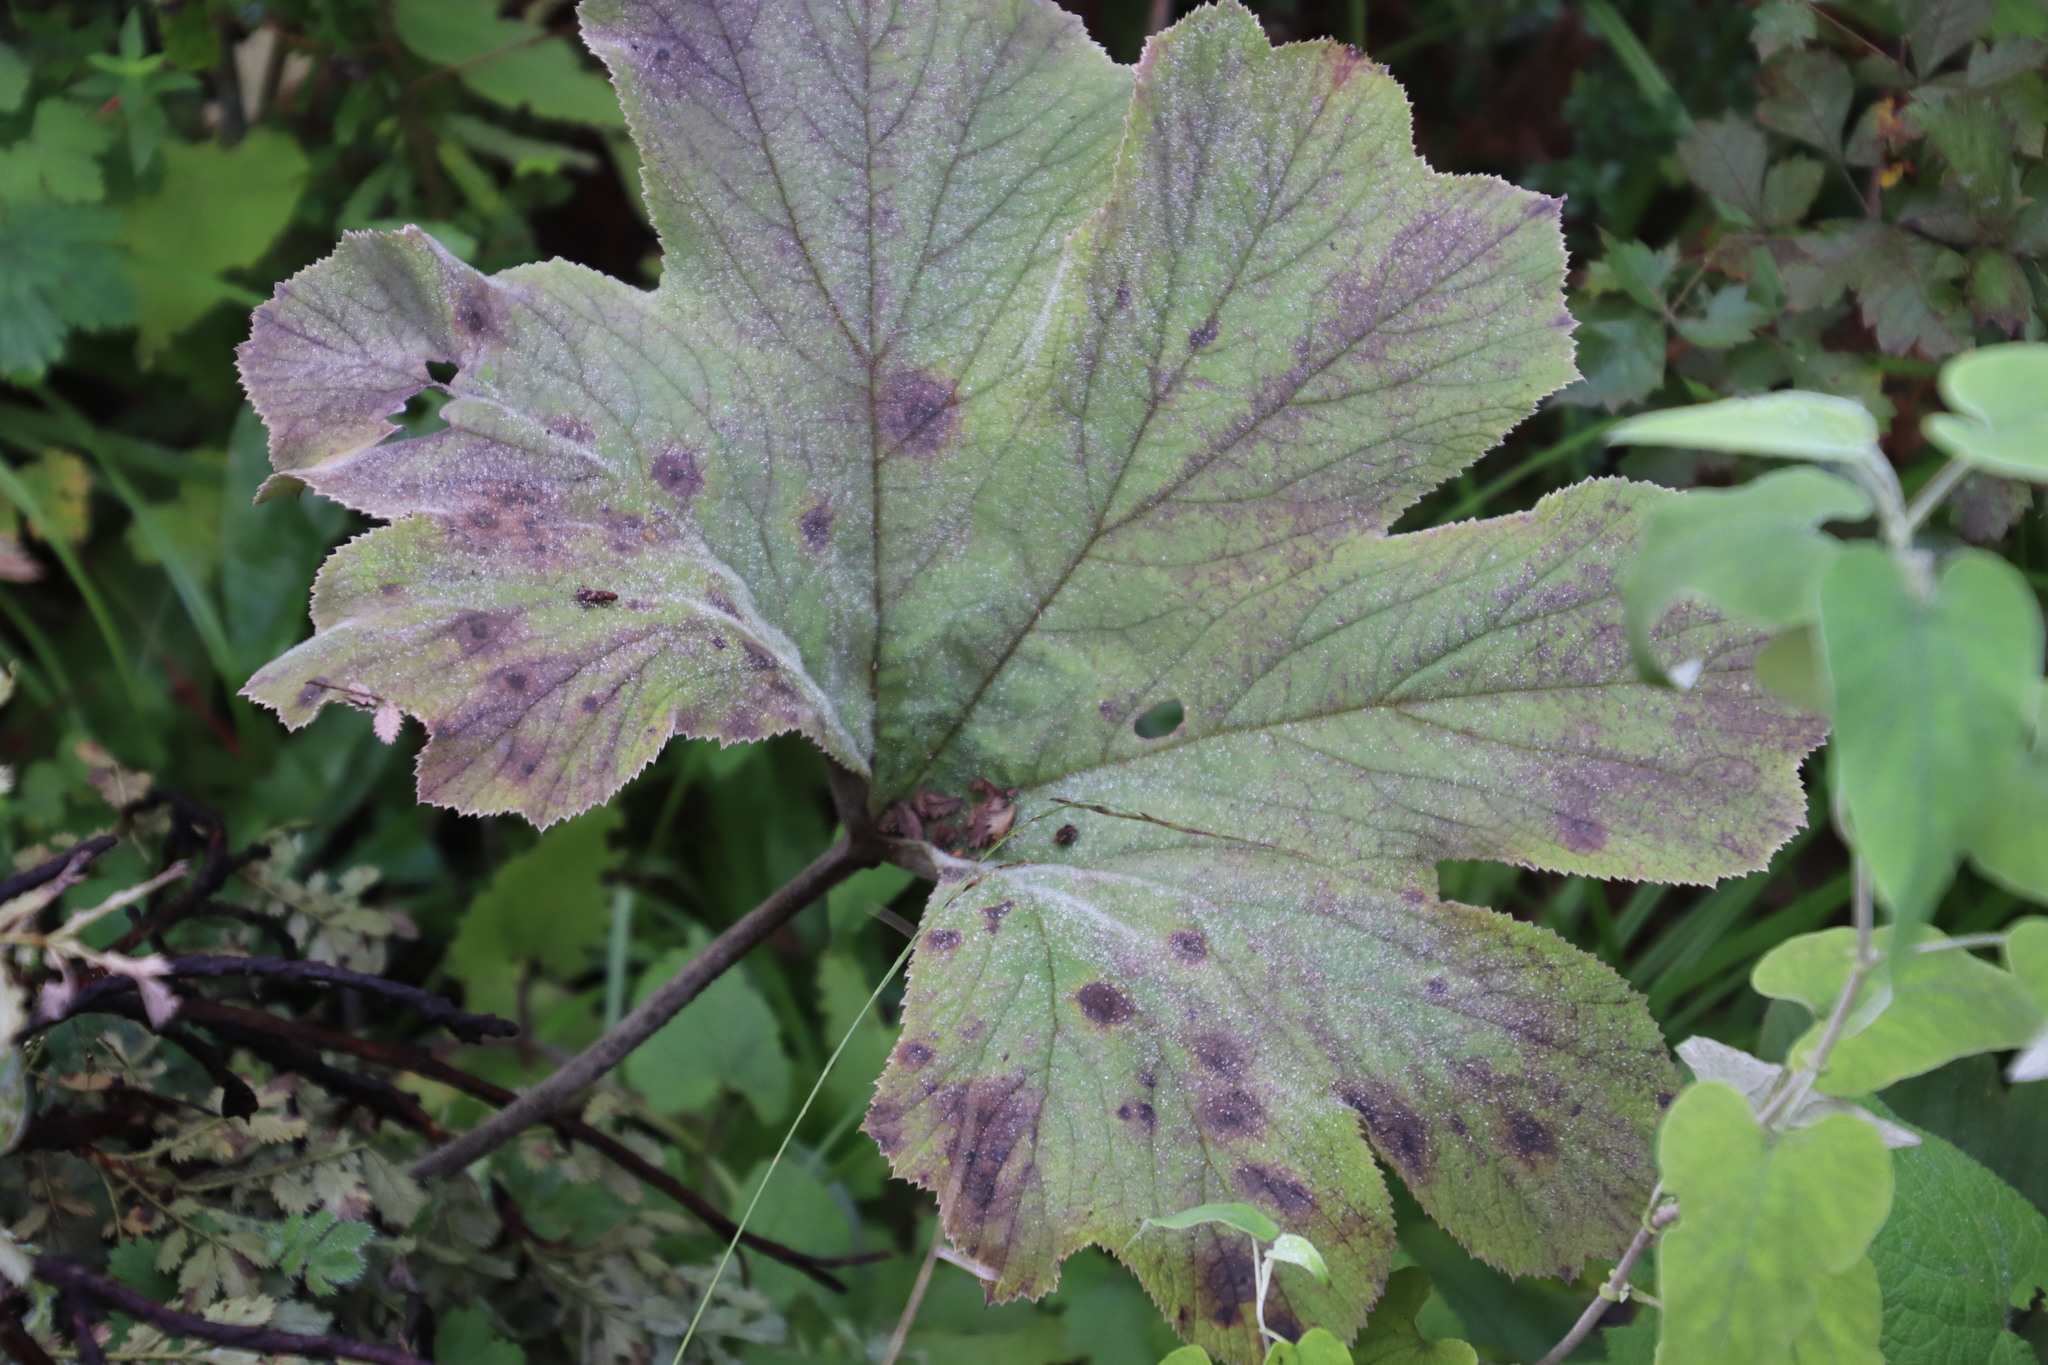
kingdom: Plantae
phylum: Tracheophyta
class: Magnoliopsida
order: Ranunculales
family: Ranunculaceae
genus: Knowltonia
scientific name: Knowltonia fanninii
